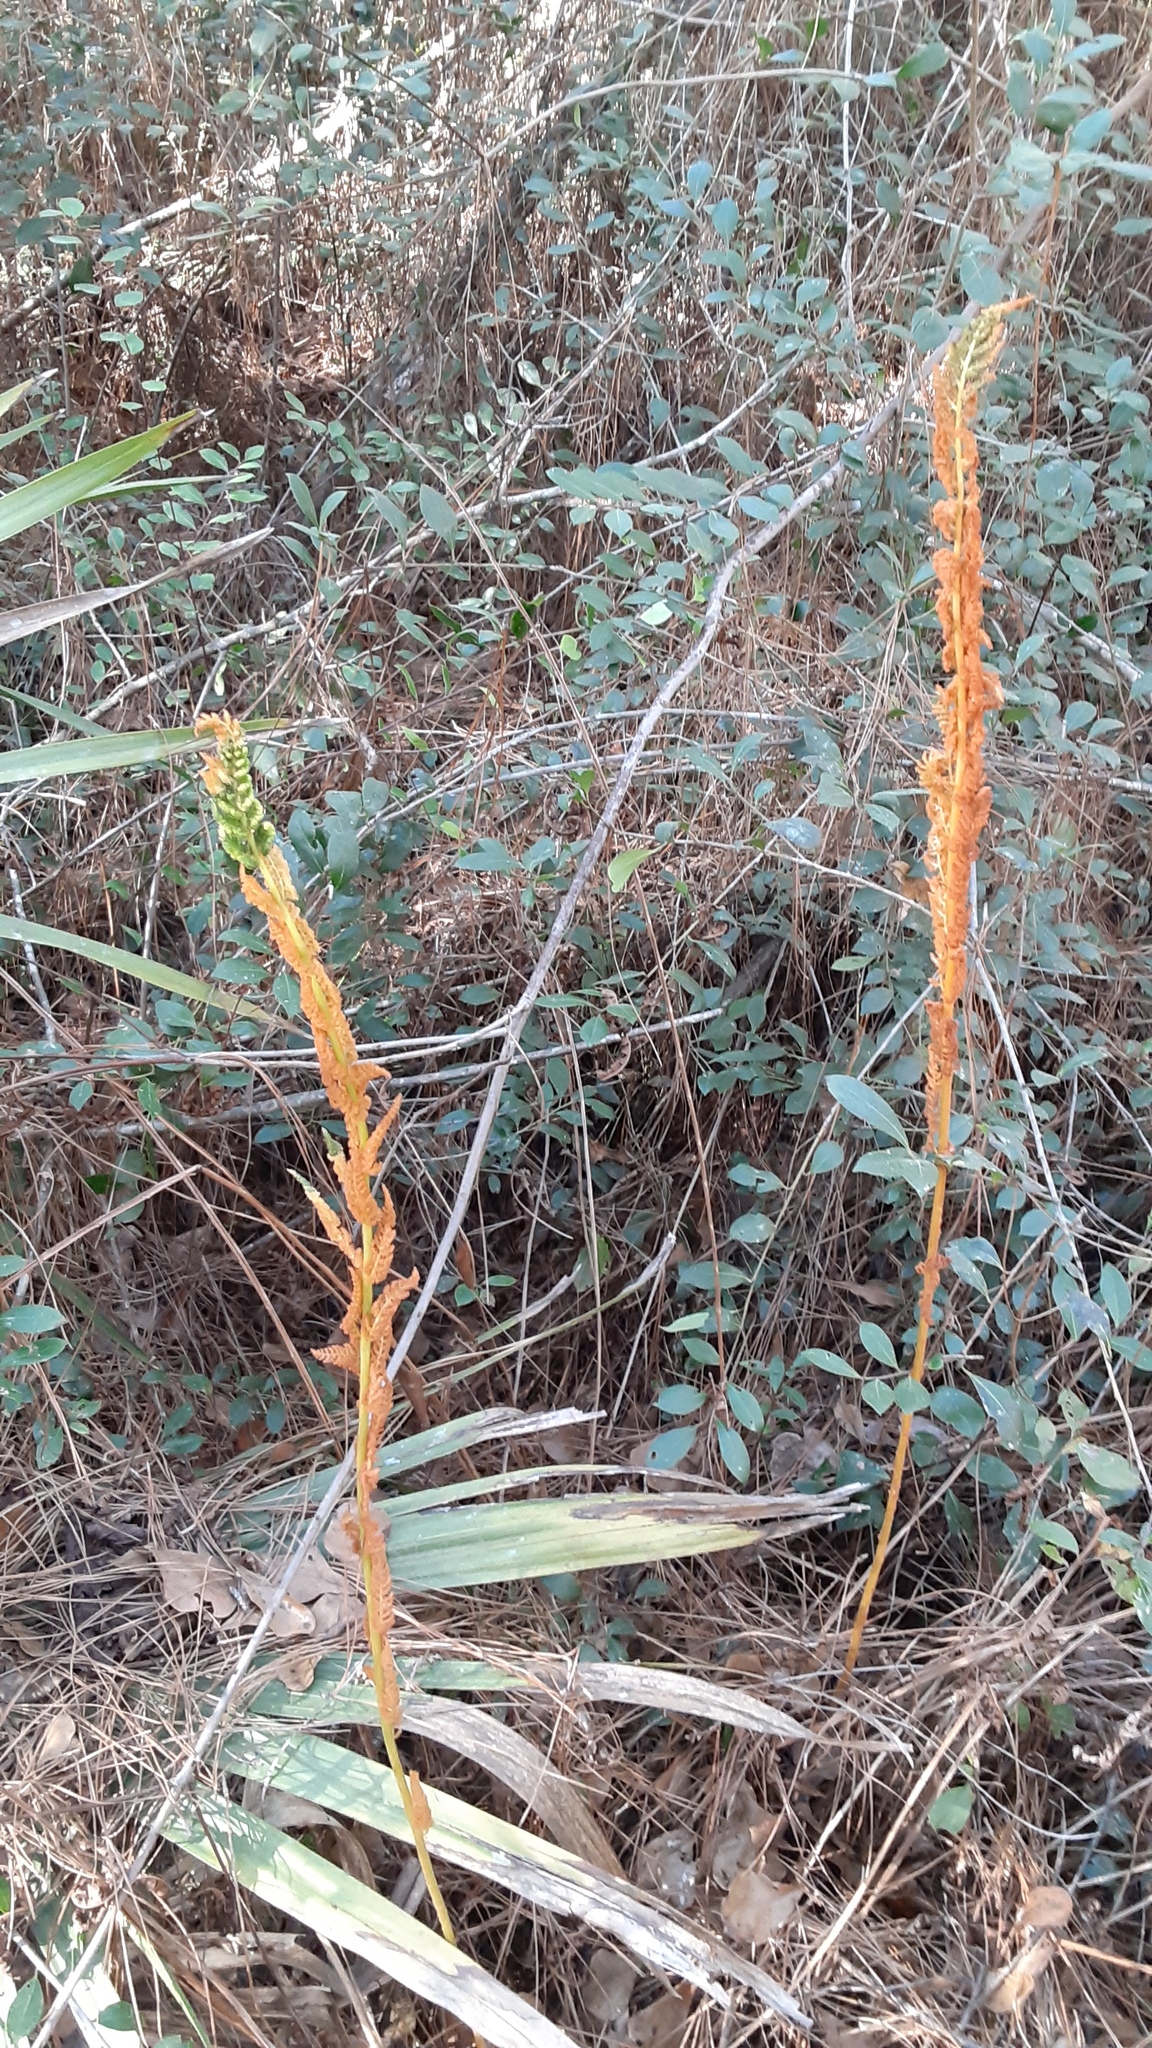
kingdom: Plantae
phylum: Tracheophyta
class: Polypodiopsida
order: Osmundales
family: Osmundaceae
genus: Osmundastrum
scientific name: Osmundastrum cinnamomeum
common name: Cinnamon fern
